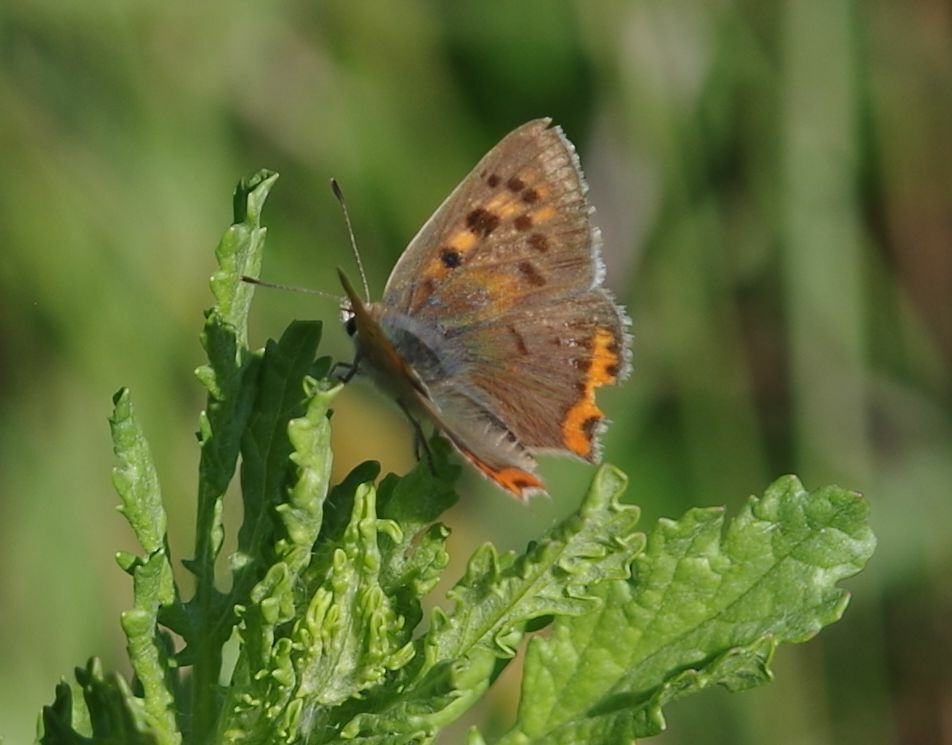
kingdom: Animalia
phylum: Arthropoda
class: Insecta
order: Lepidoptera
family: Lycaenidae
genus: Lycaena
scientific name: Lycaena phlaeas
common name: Small copper
